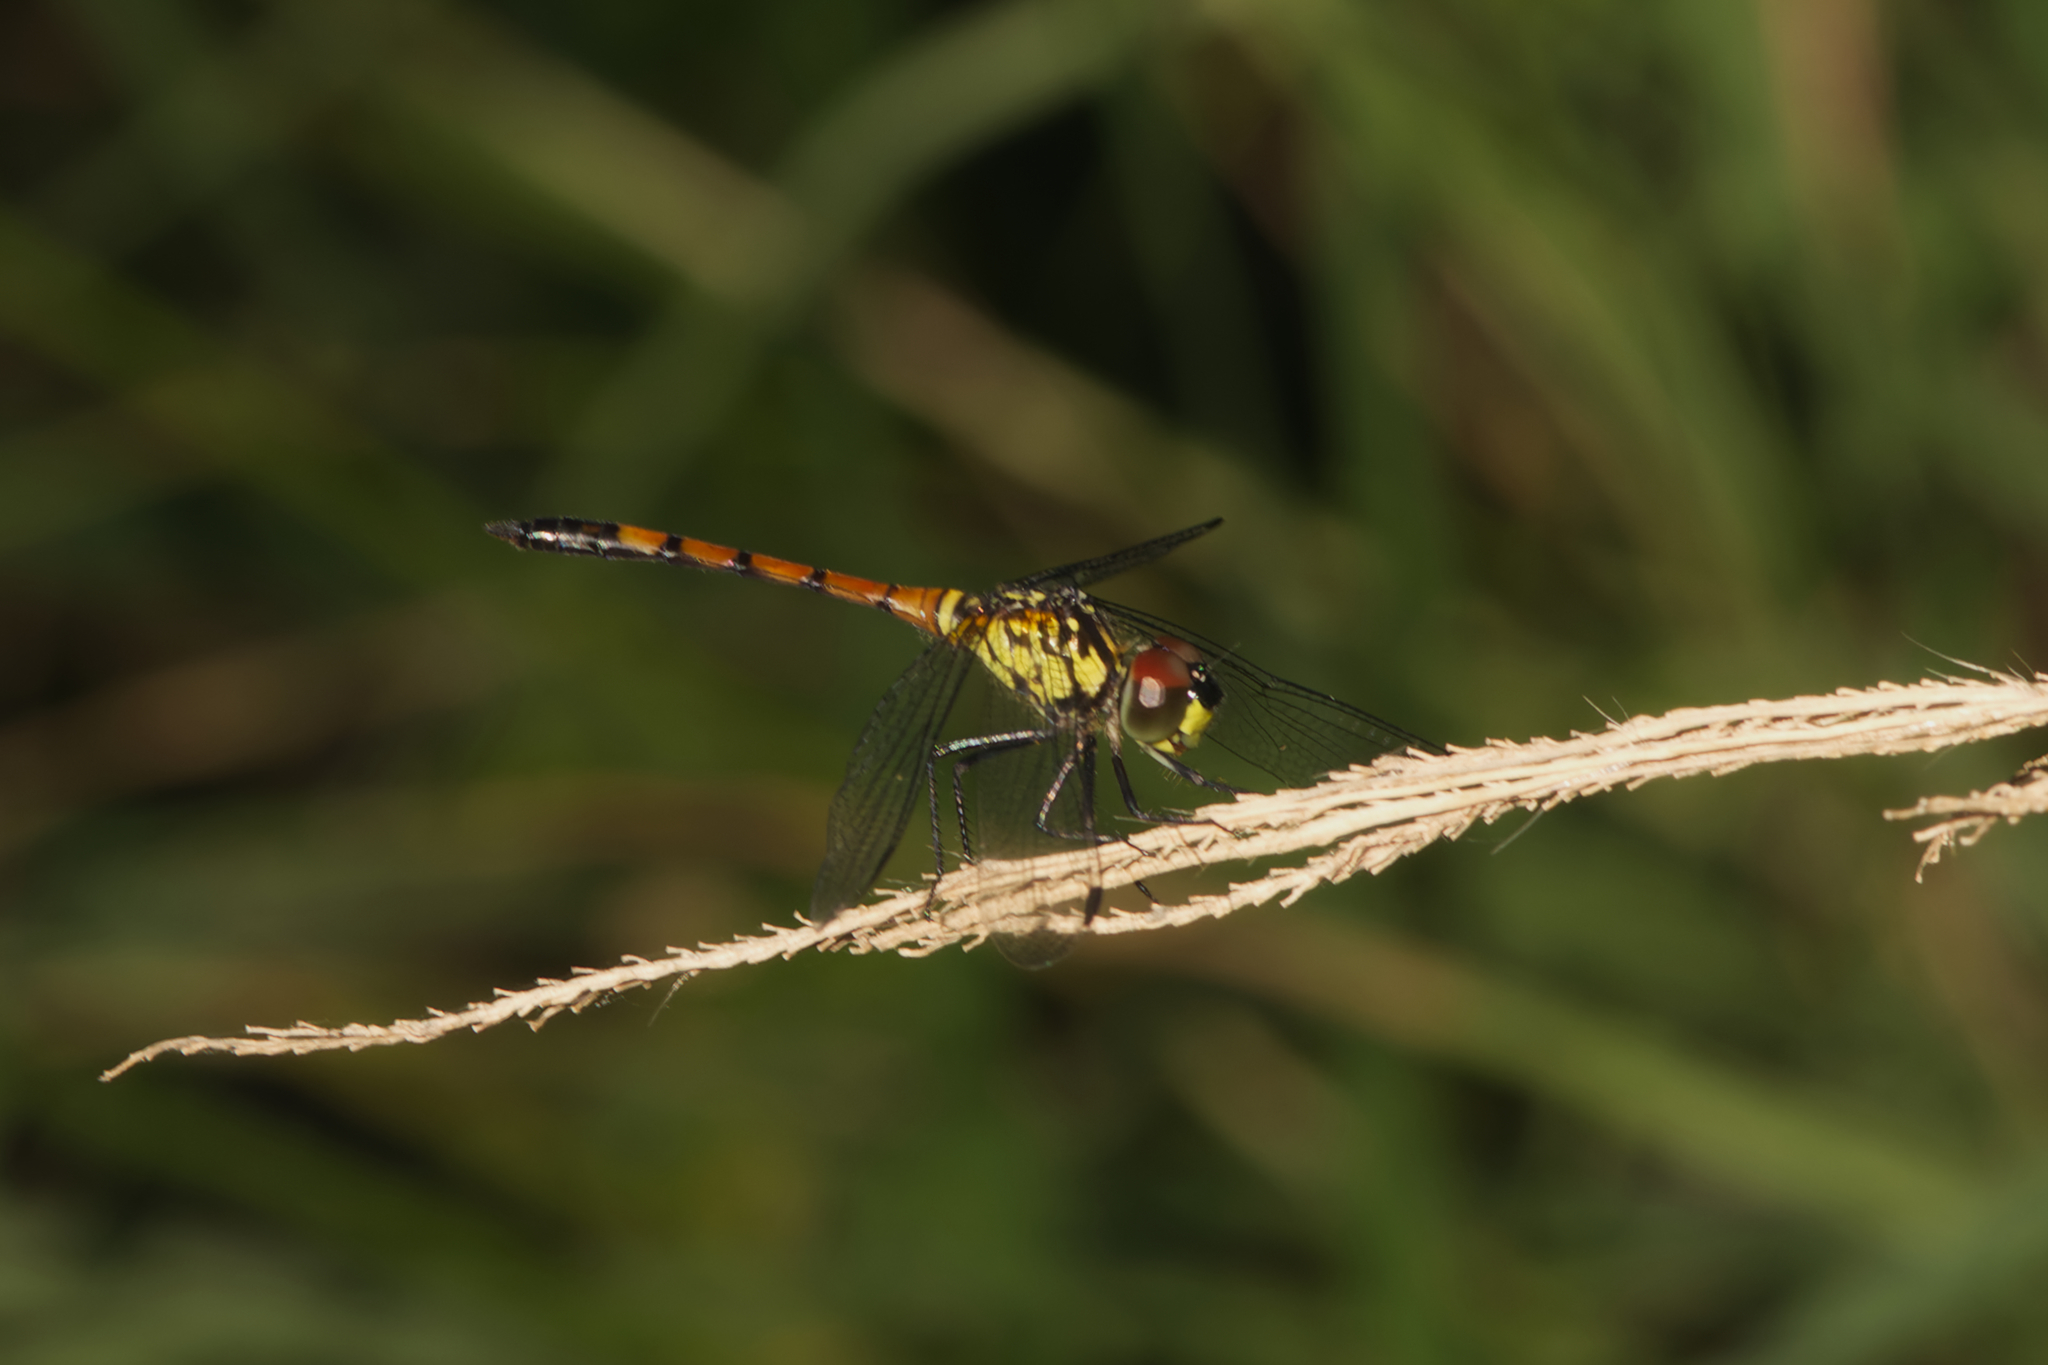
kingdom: Animalia
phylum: Arthropoda
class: Insecta
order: Odonata
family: Libellulidae
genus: Agrionoptera
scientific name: Agrionoptera insignis
